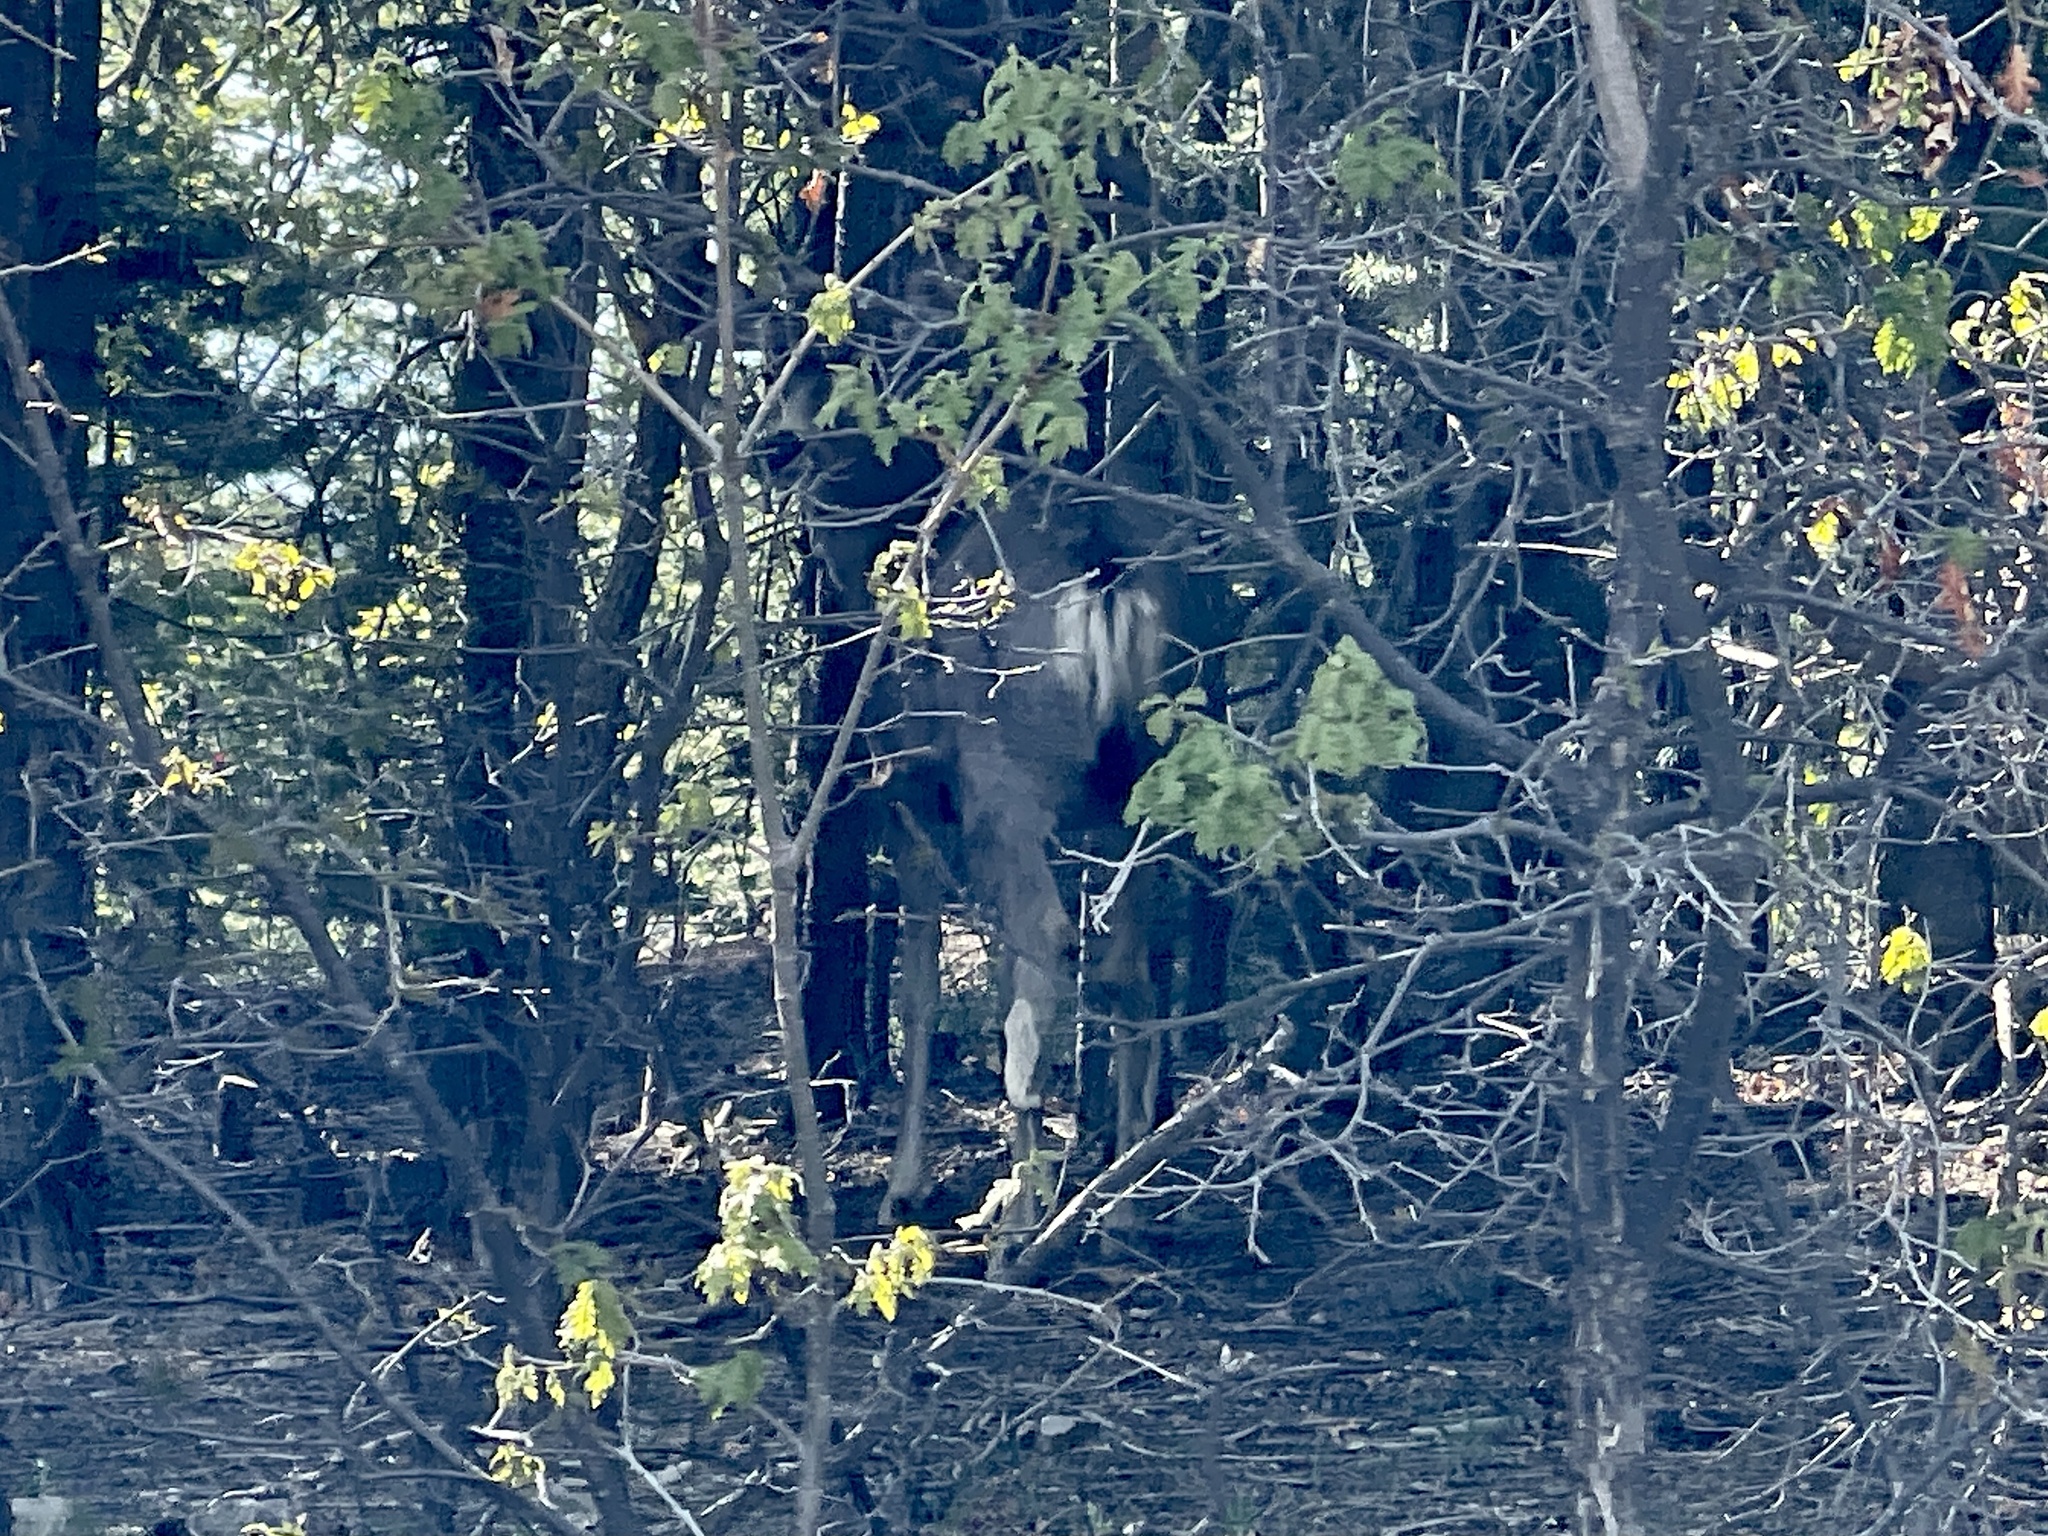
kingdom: Animalia
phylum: Chordata
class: Mammalia
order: Artiodactyla
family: Cervidae
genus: Odocoileus
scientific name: Odocoileus hemionus
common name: Mule deer
